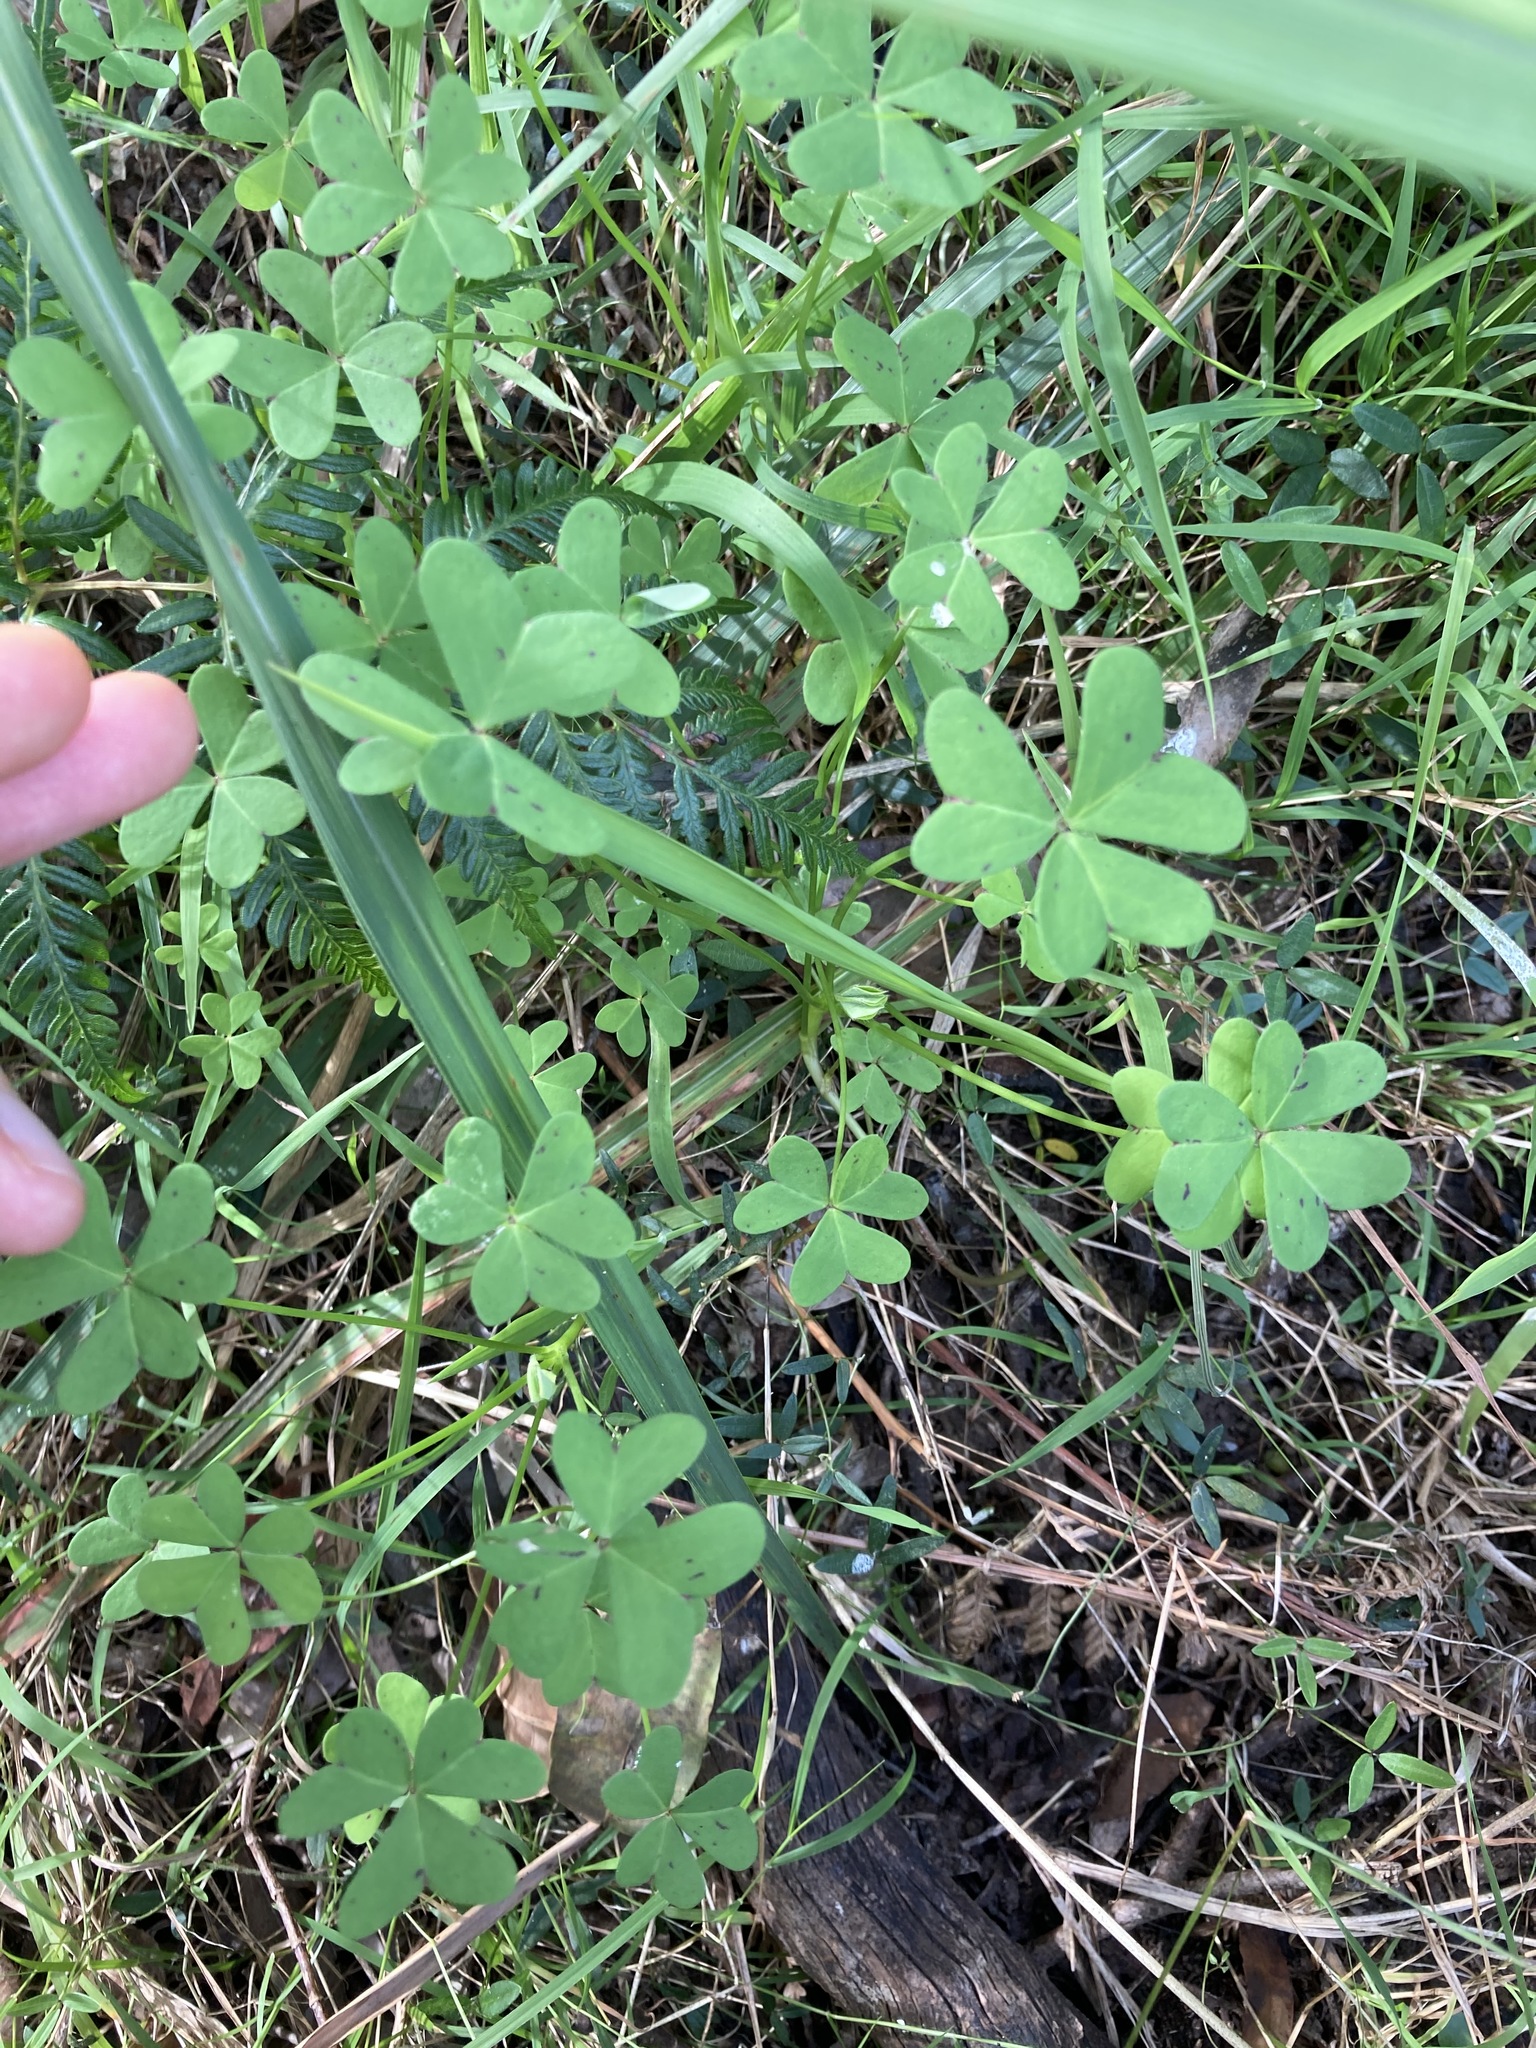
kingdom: Plantae
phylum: Tracheophyta
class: Magnoliopsida
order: Oxalidales
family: Oxalidaceae
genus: Oxalis
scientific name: Oxalis pes-caprae
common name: Bermuda-buttercup
